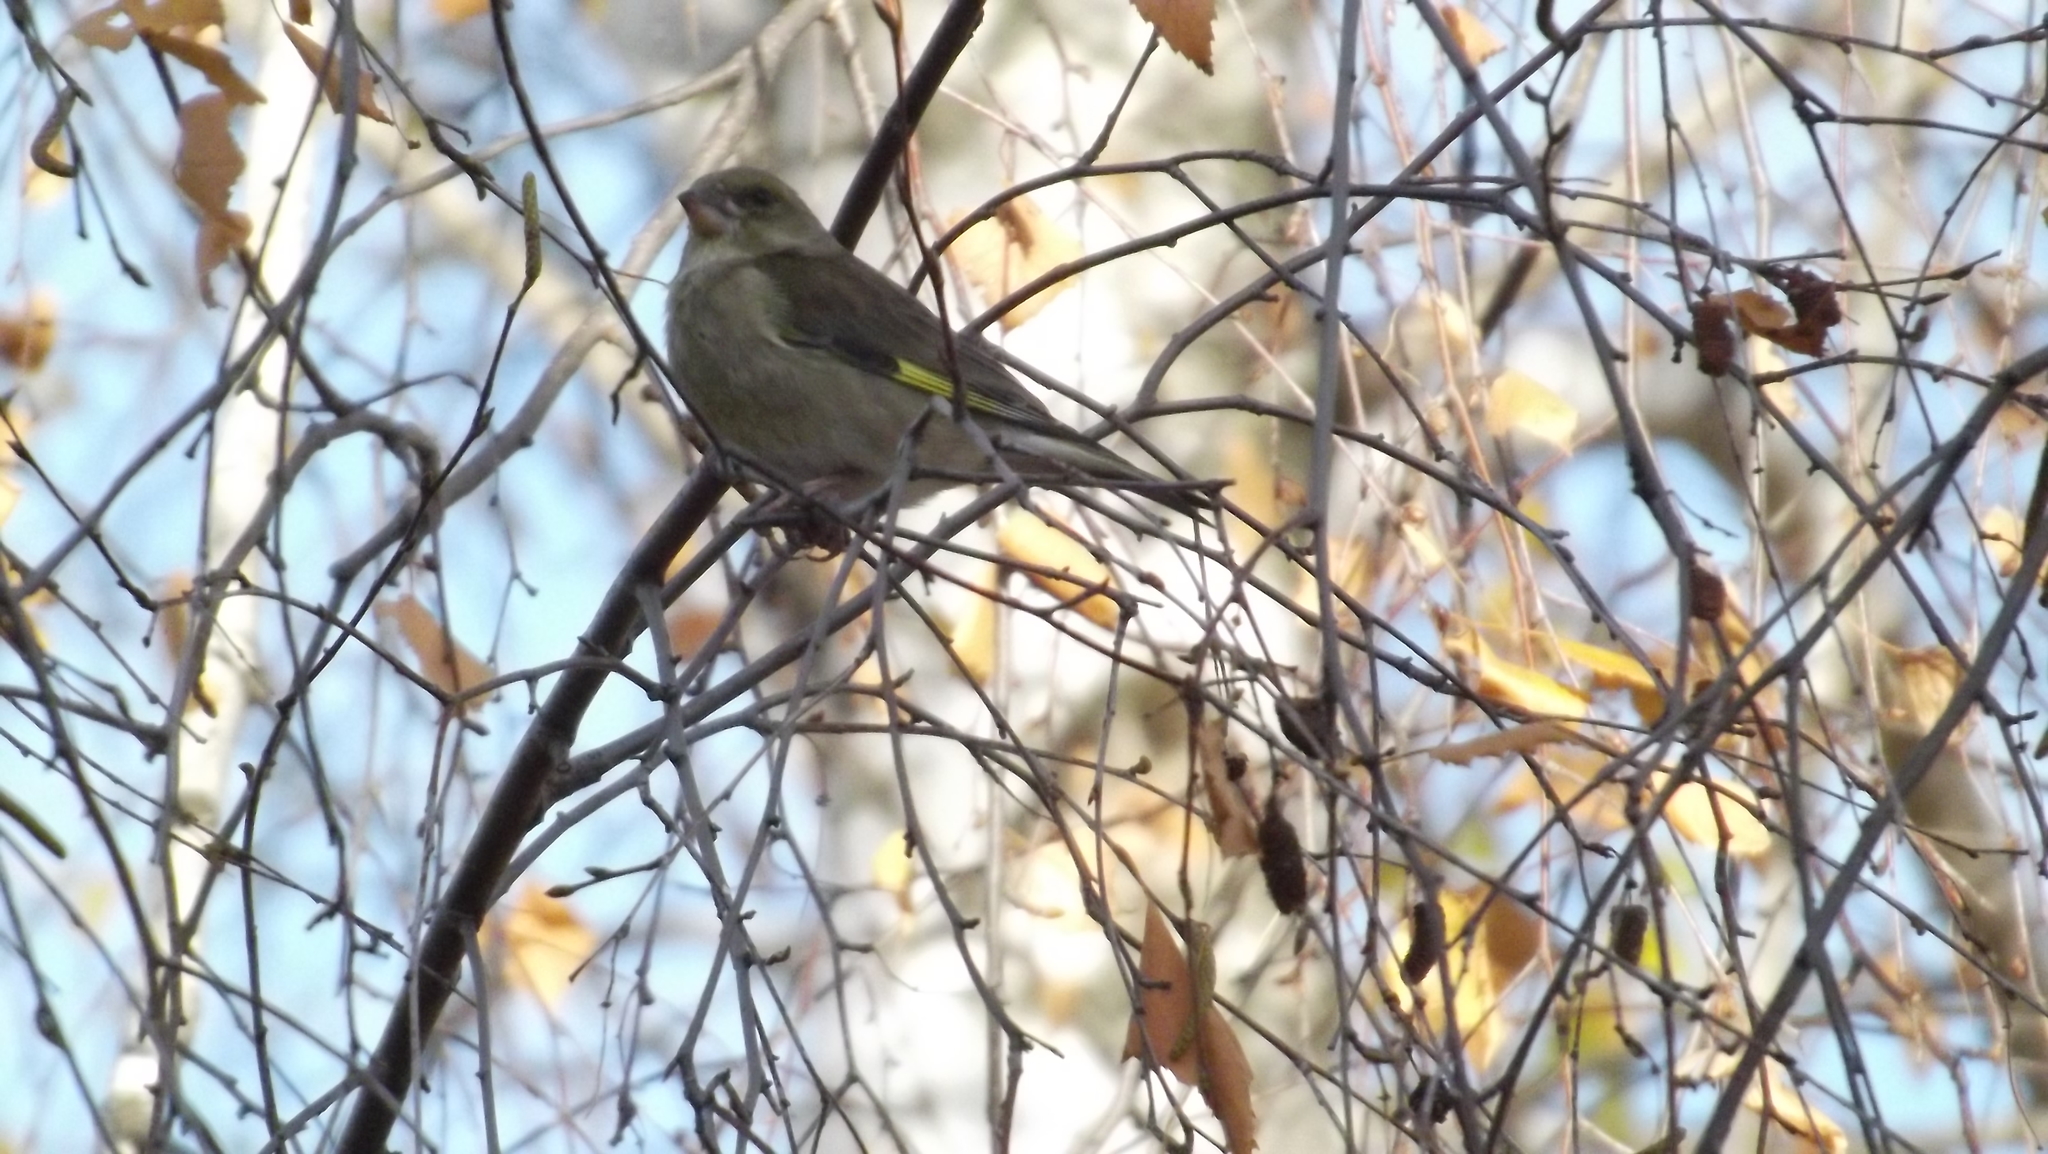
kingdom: Plantae
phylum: Tracheophyta
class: Liliopsida
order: Poales
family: Poaceae
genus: Chloris
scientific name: Chloris chloris
